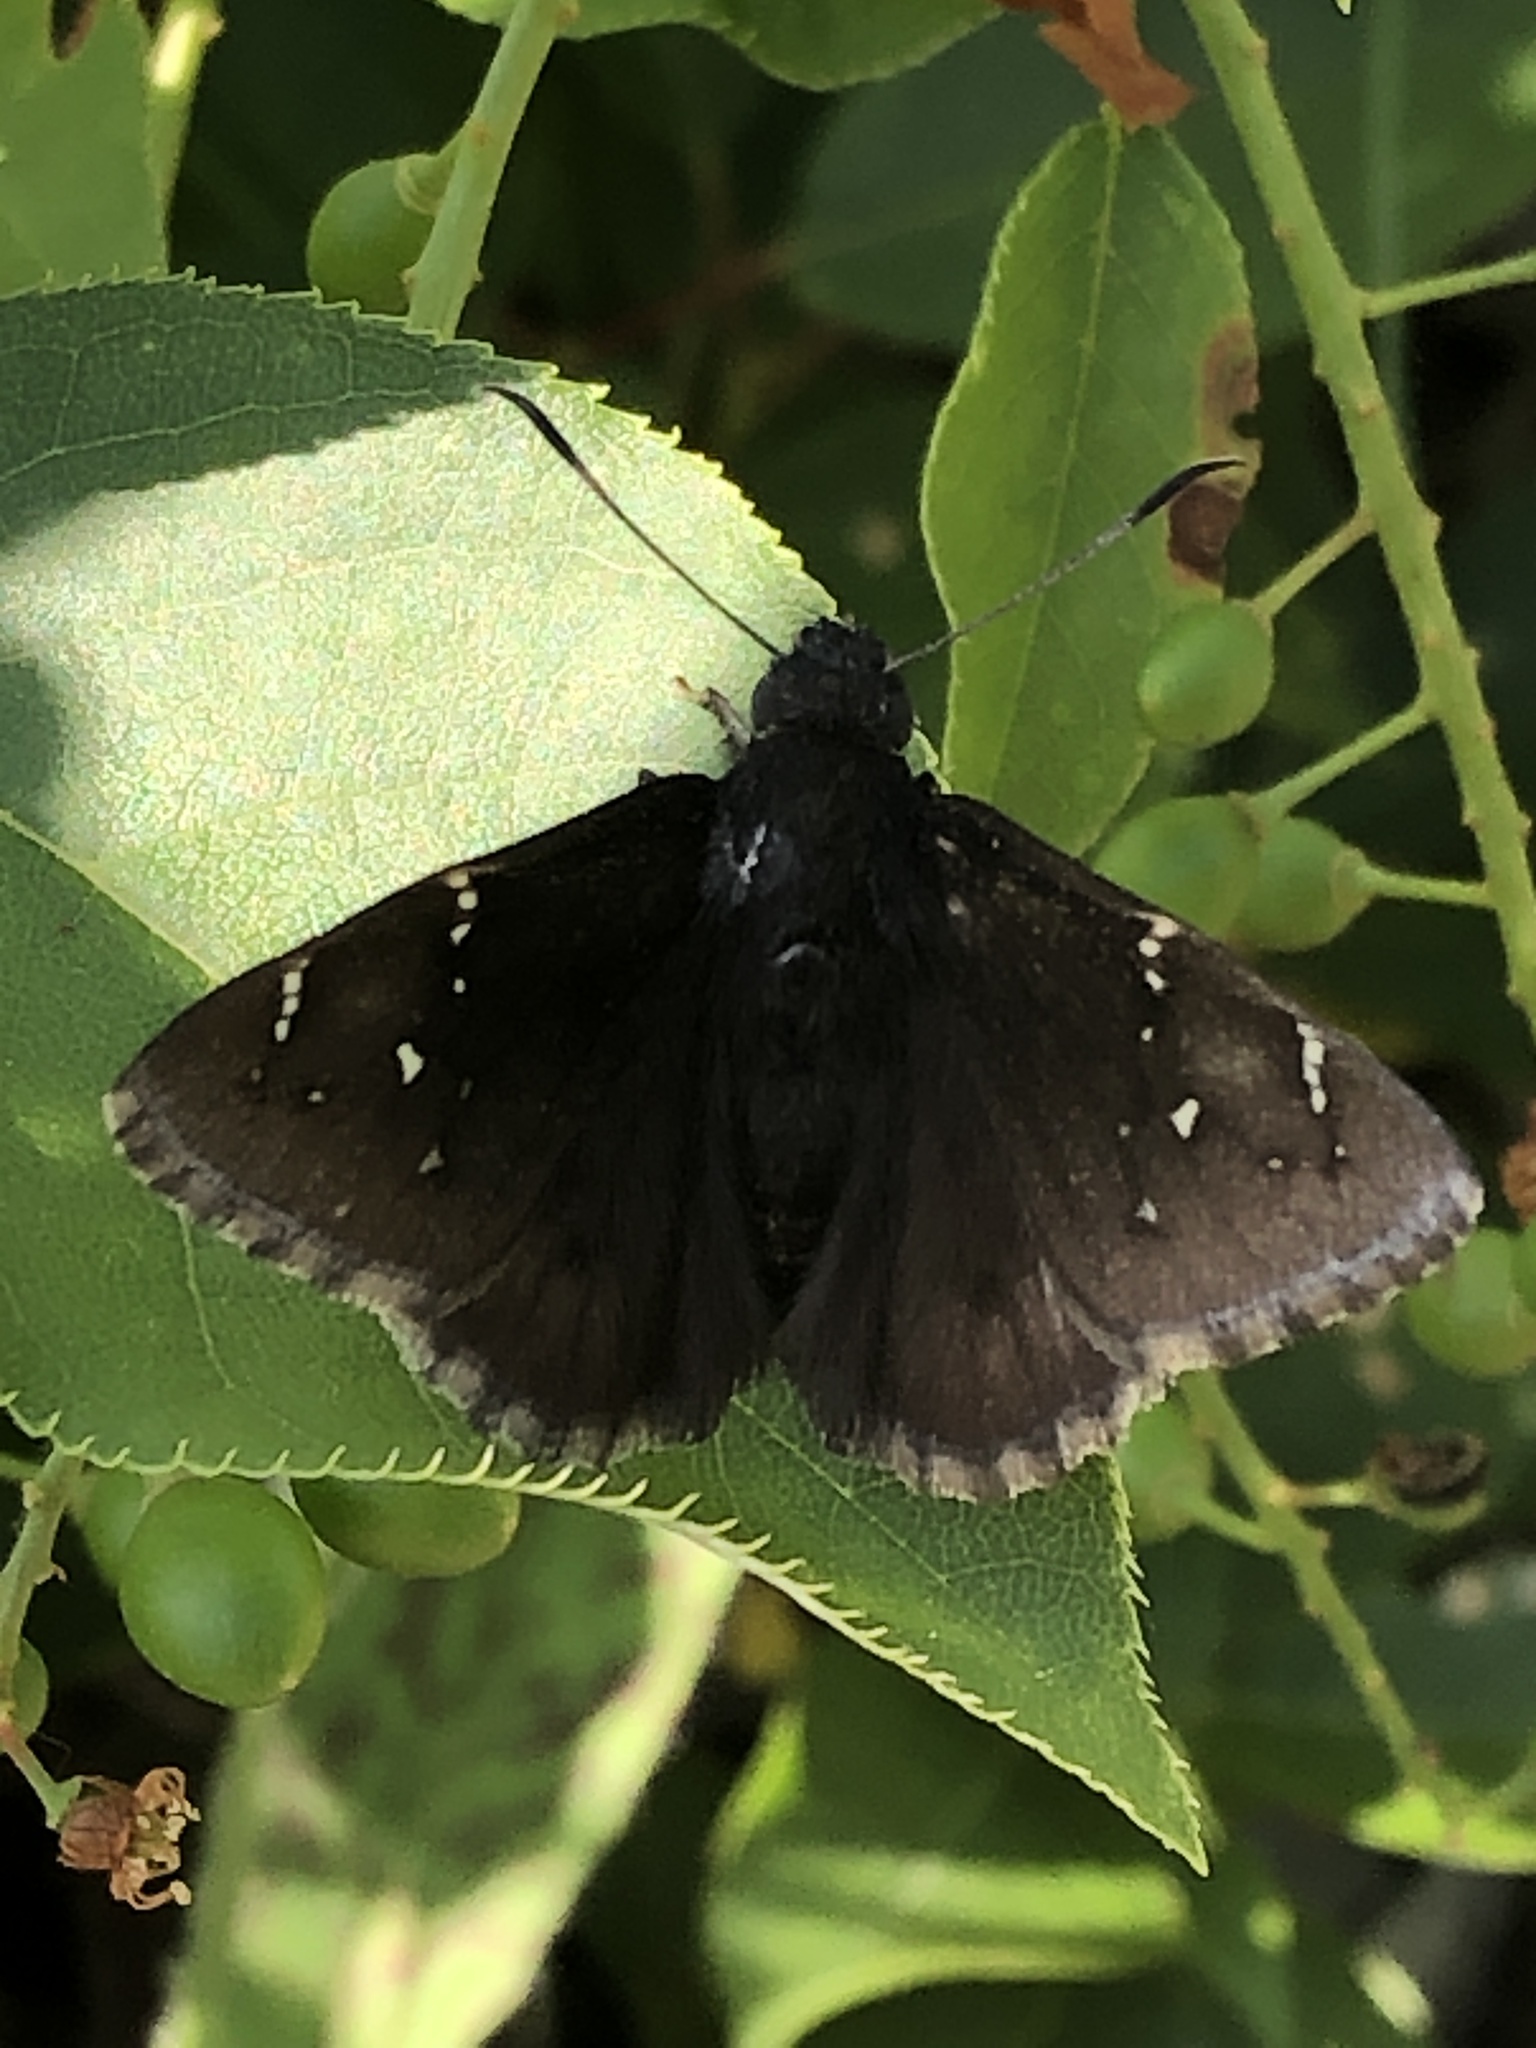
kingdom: Animalia
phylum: Arthropoda
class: Insecta
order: Lepidoptera
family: Hesperiidae
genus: Thorybes
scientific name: Thorybes pylades
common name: Northern cloudywing
